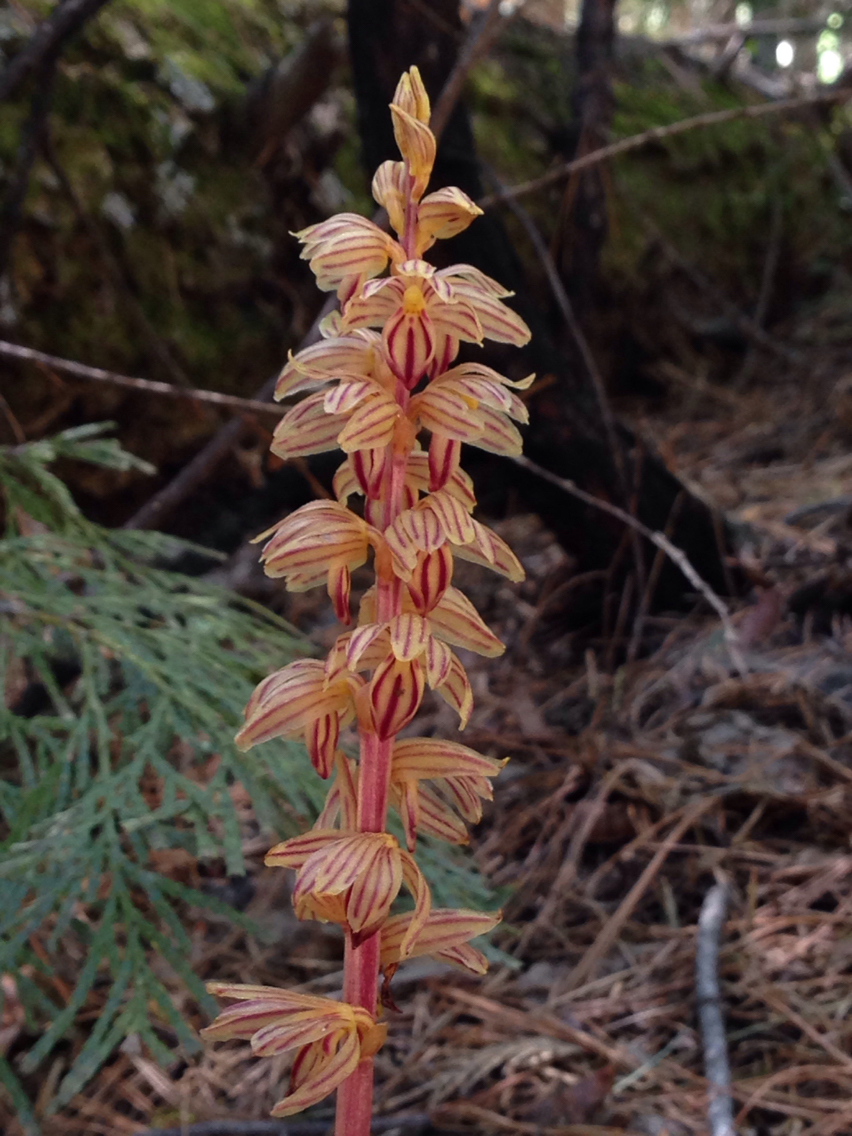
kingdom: Plantae
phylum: Tracheophyta
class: Liliopsida
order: Asparagales
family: Orchidaceae
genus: Corallorhiza
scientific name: Corallorhiza striata
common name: Hooded coralroot
